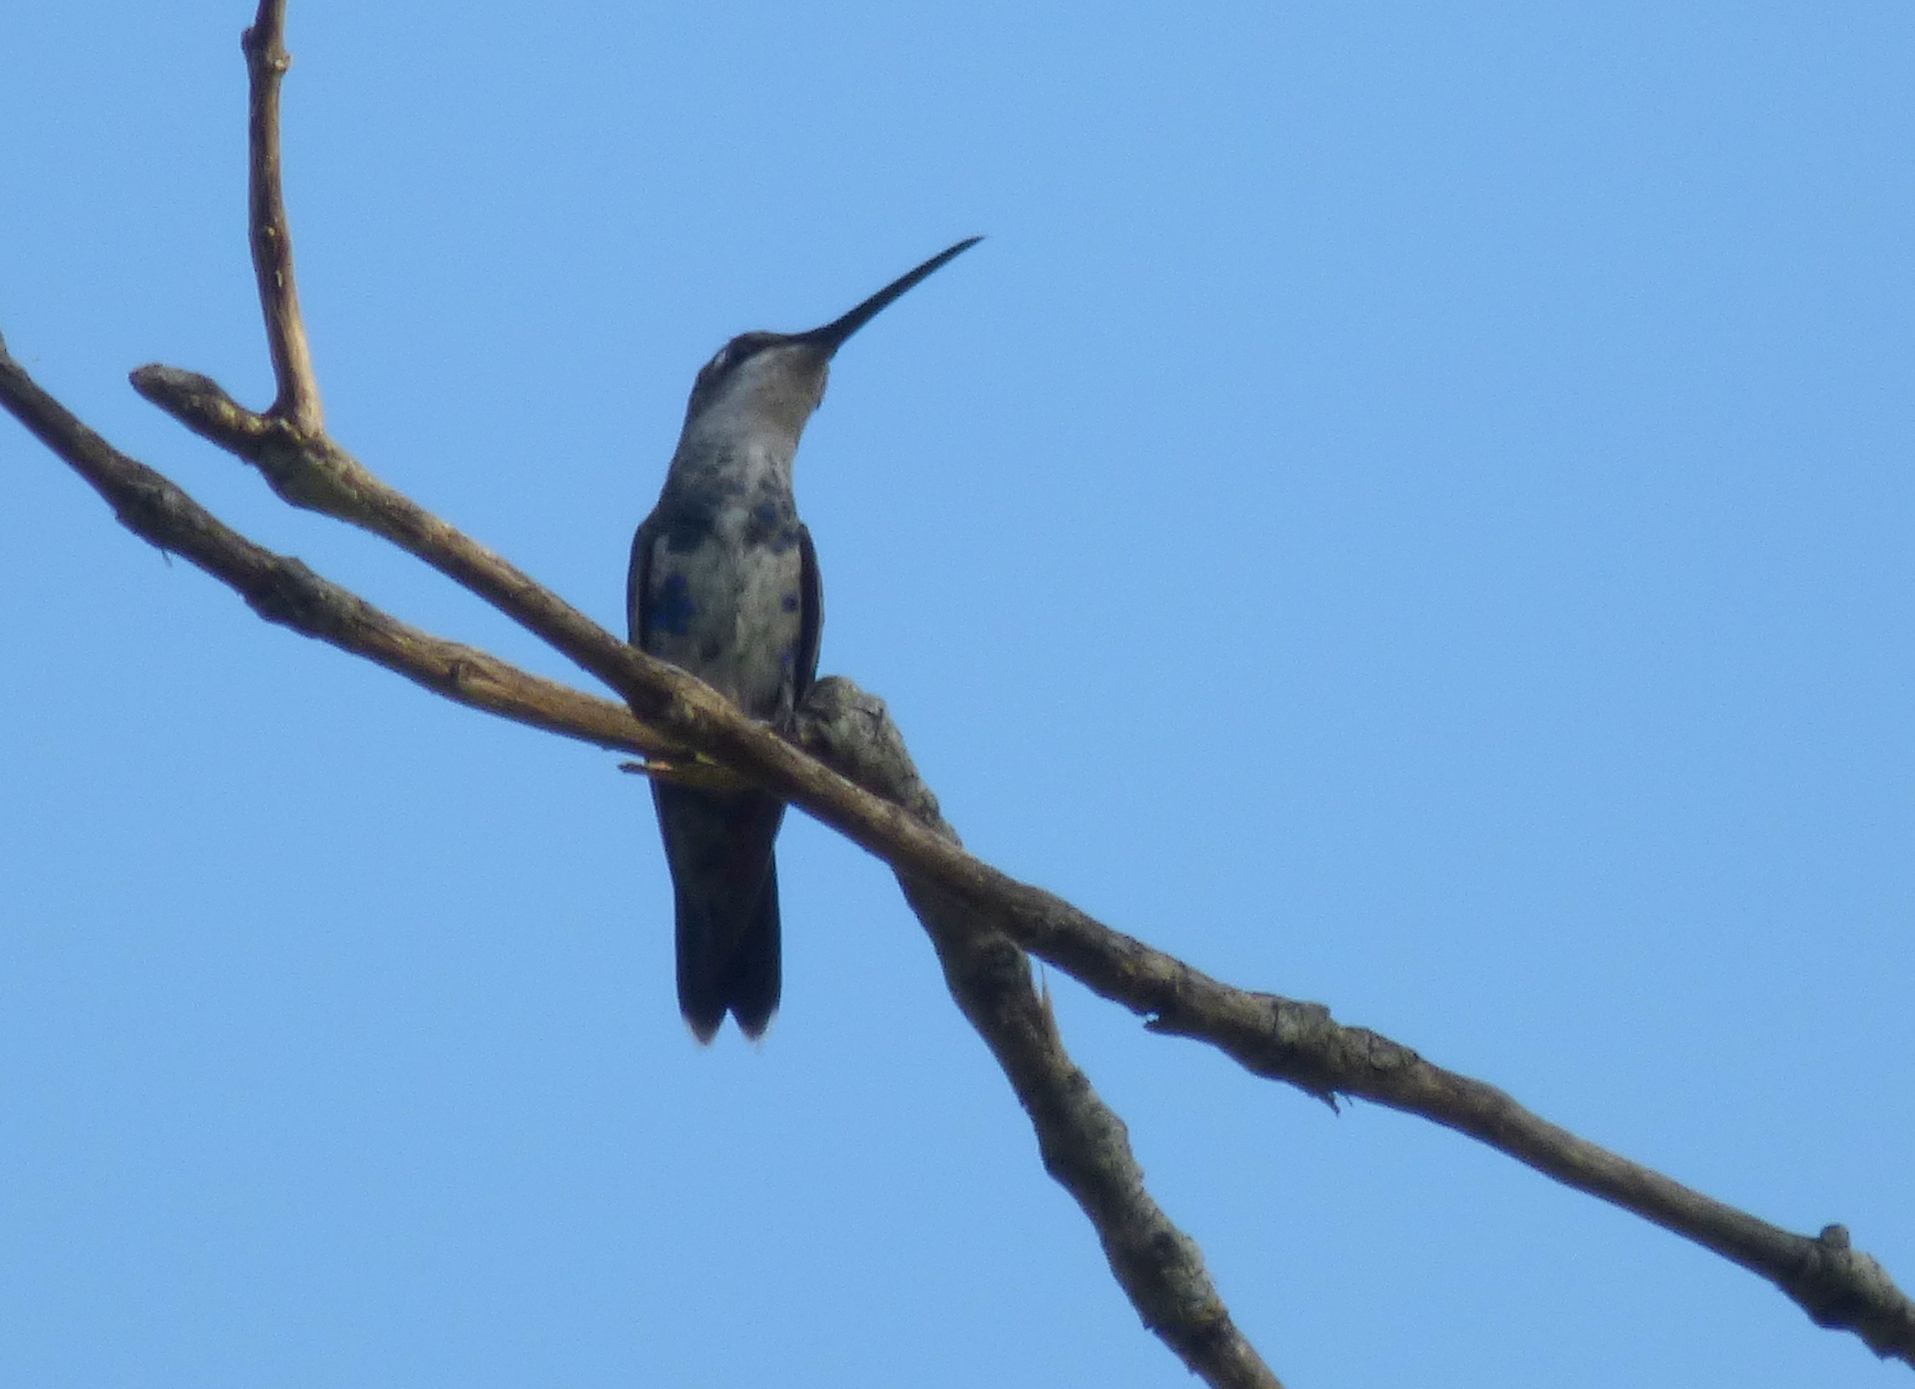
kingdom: Animalia
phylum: Chordata
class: Aves
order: Apodiformes
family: Trochilidae
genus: Heliomaster
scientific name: Heliomaster furcifer
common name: Blue-tufted starthroat
